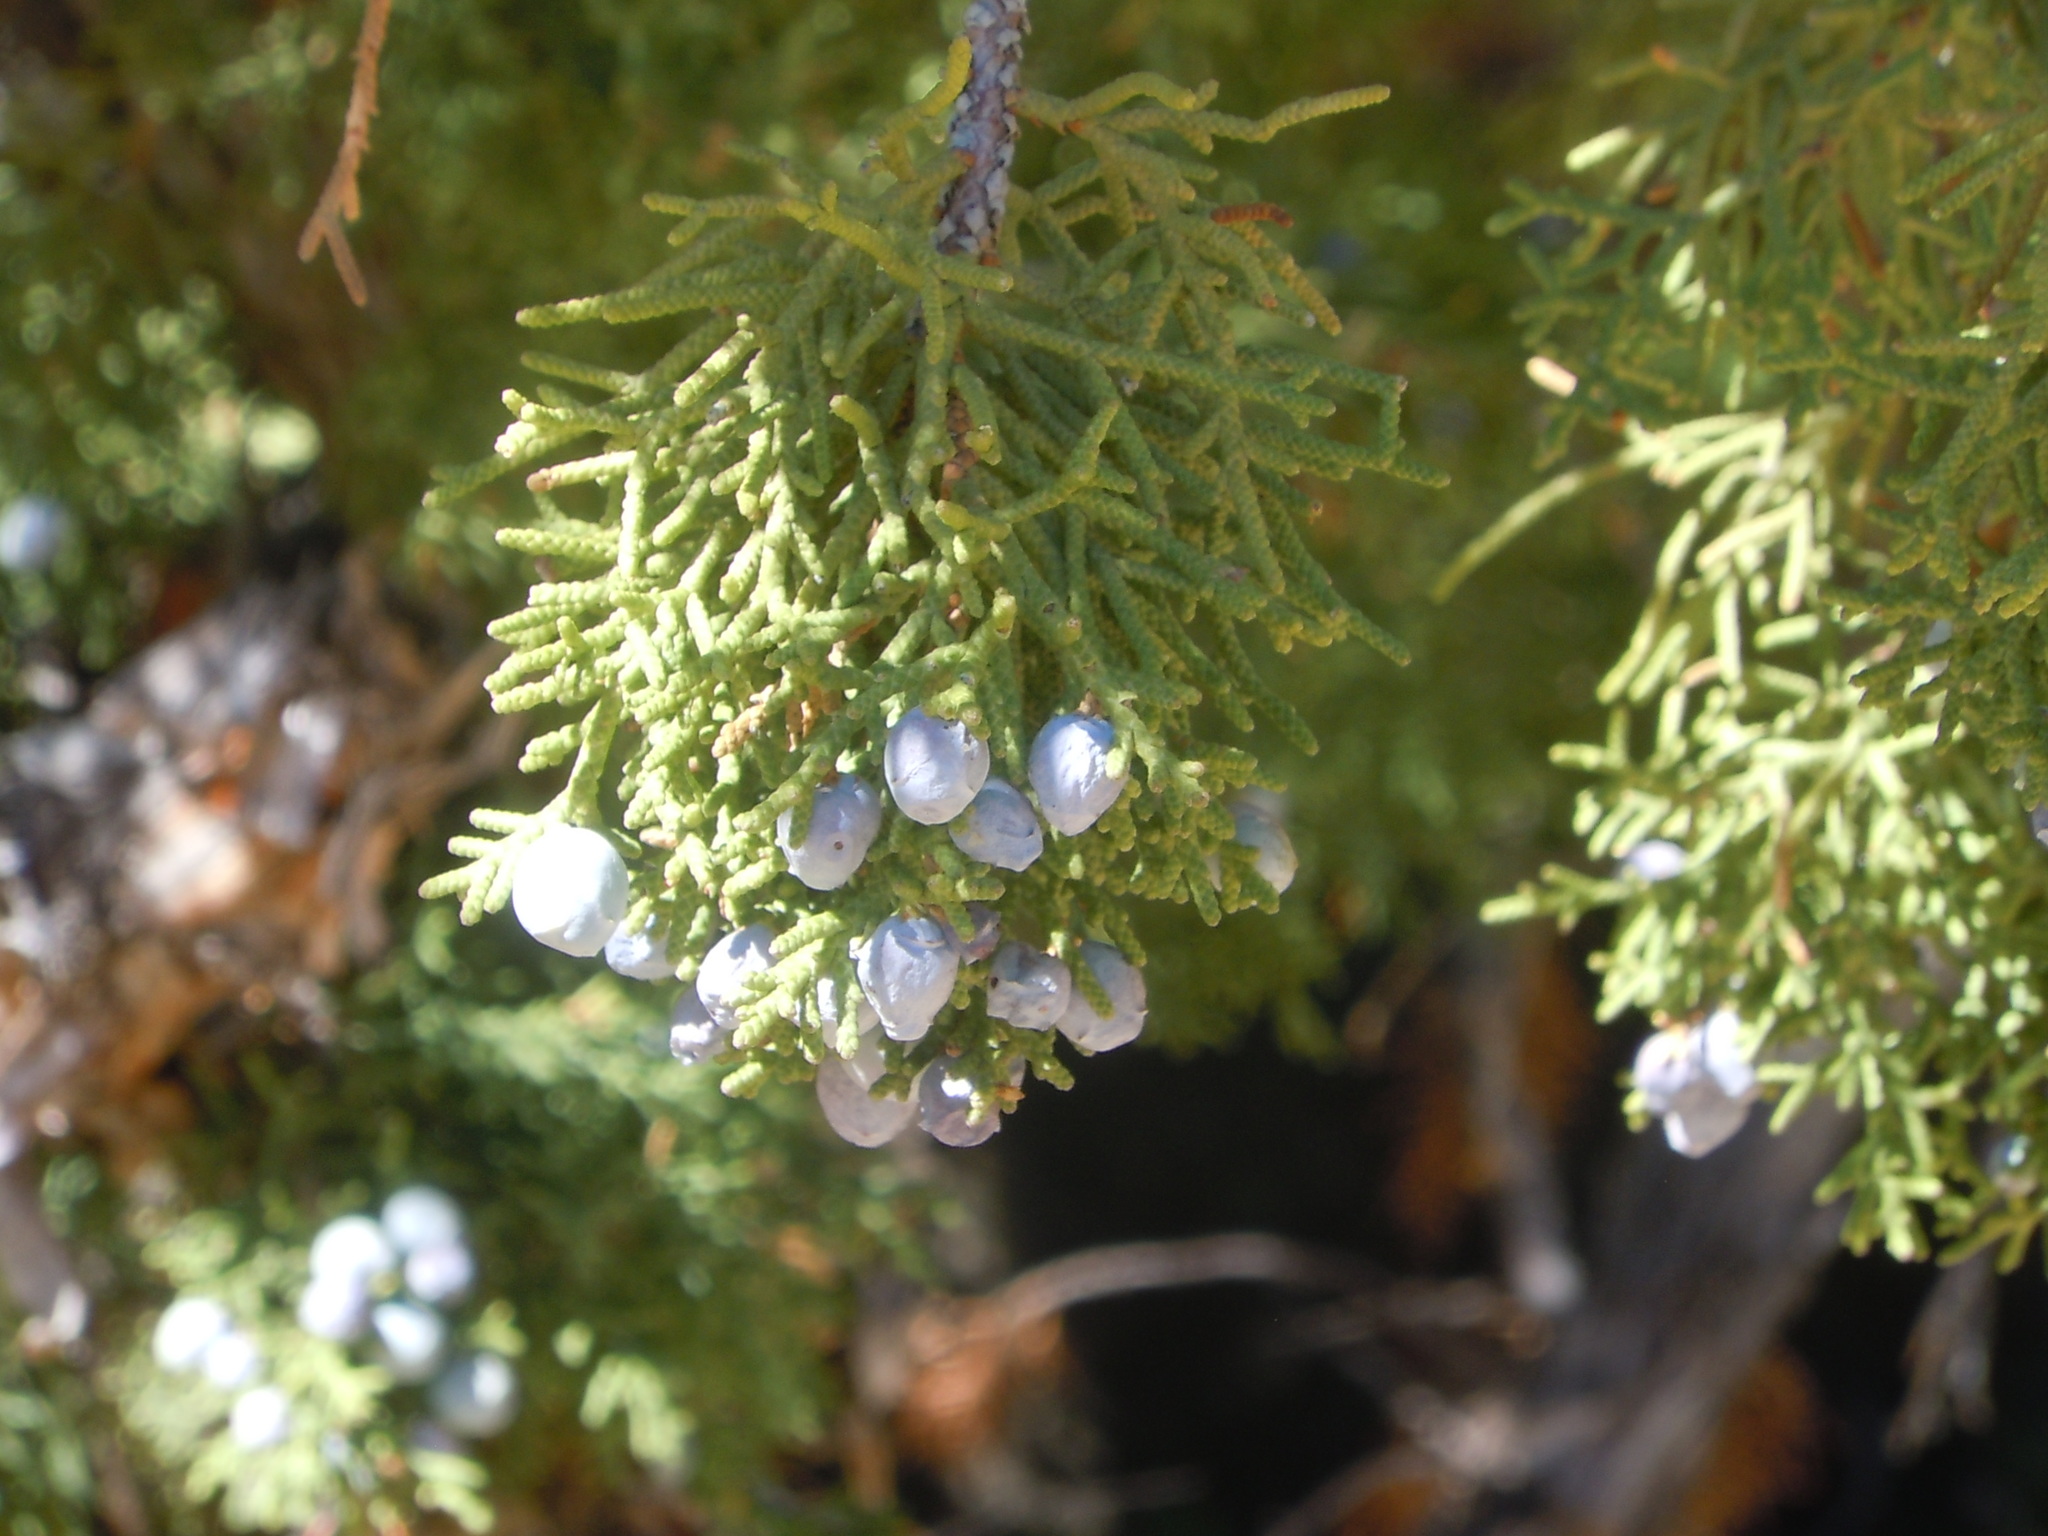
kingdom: Plantae
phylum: Tracheophyta
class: Pinopsida
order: Pinales
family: Cupressaceae
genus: Juniperus
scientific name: Juniperus osteosperma
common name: Utah juniper
